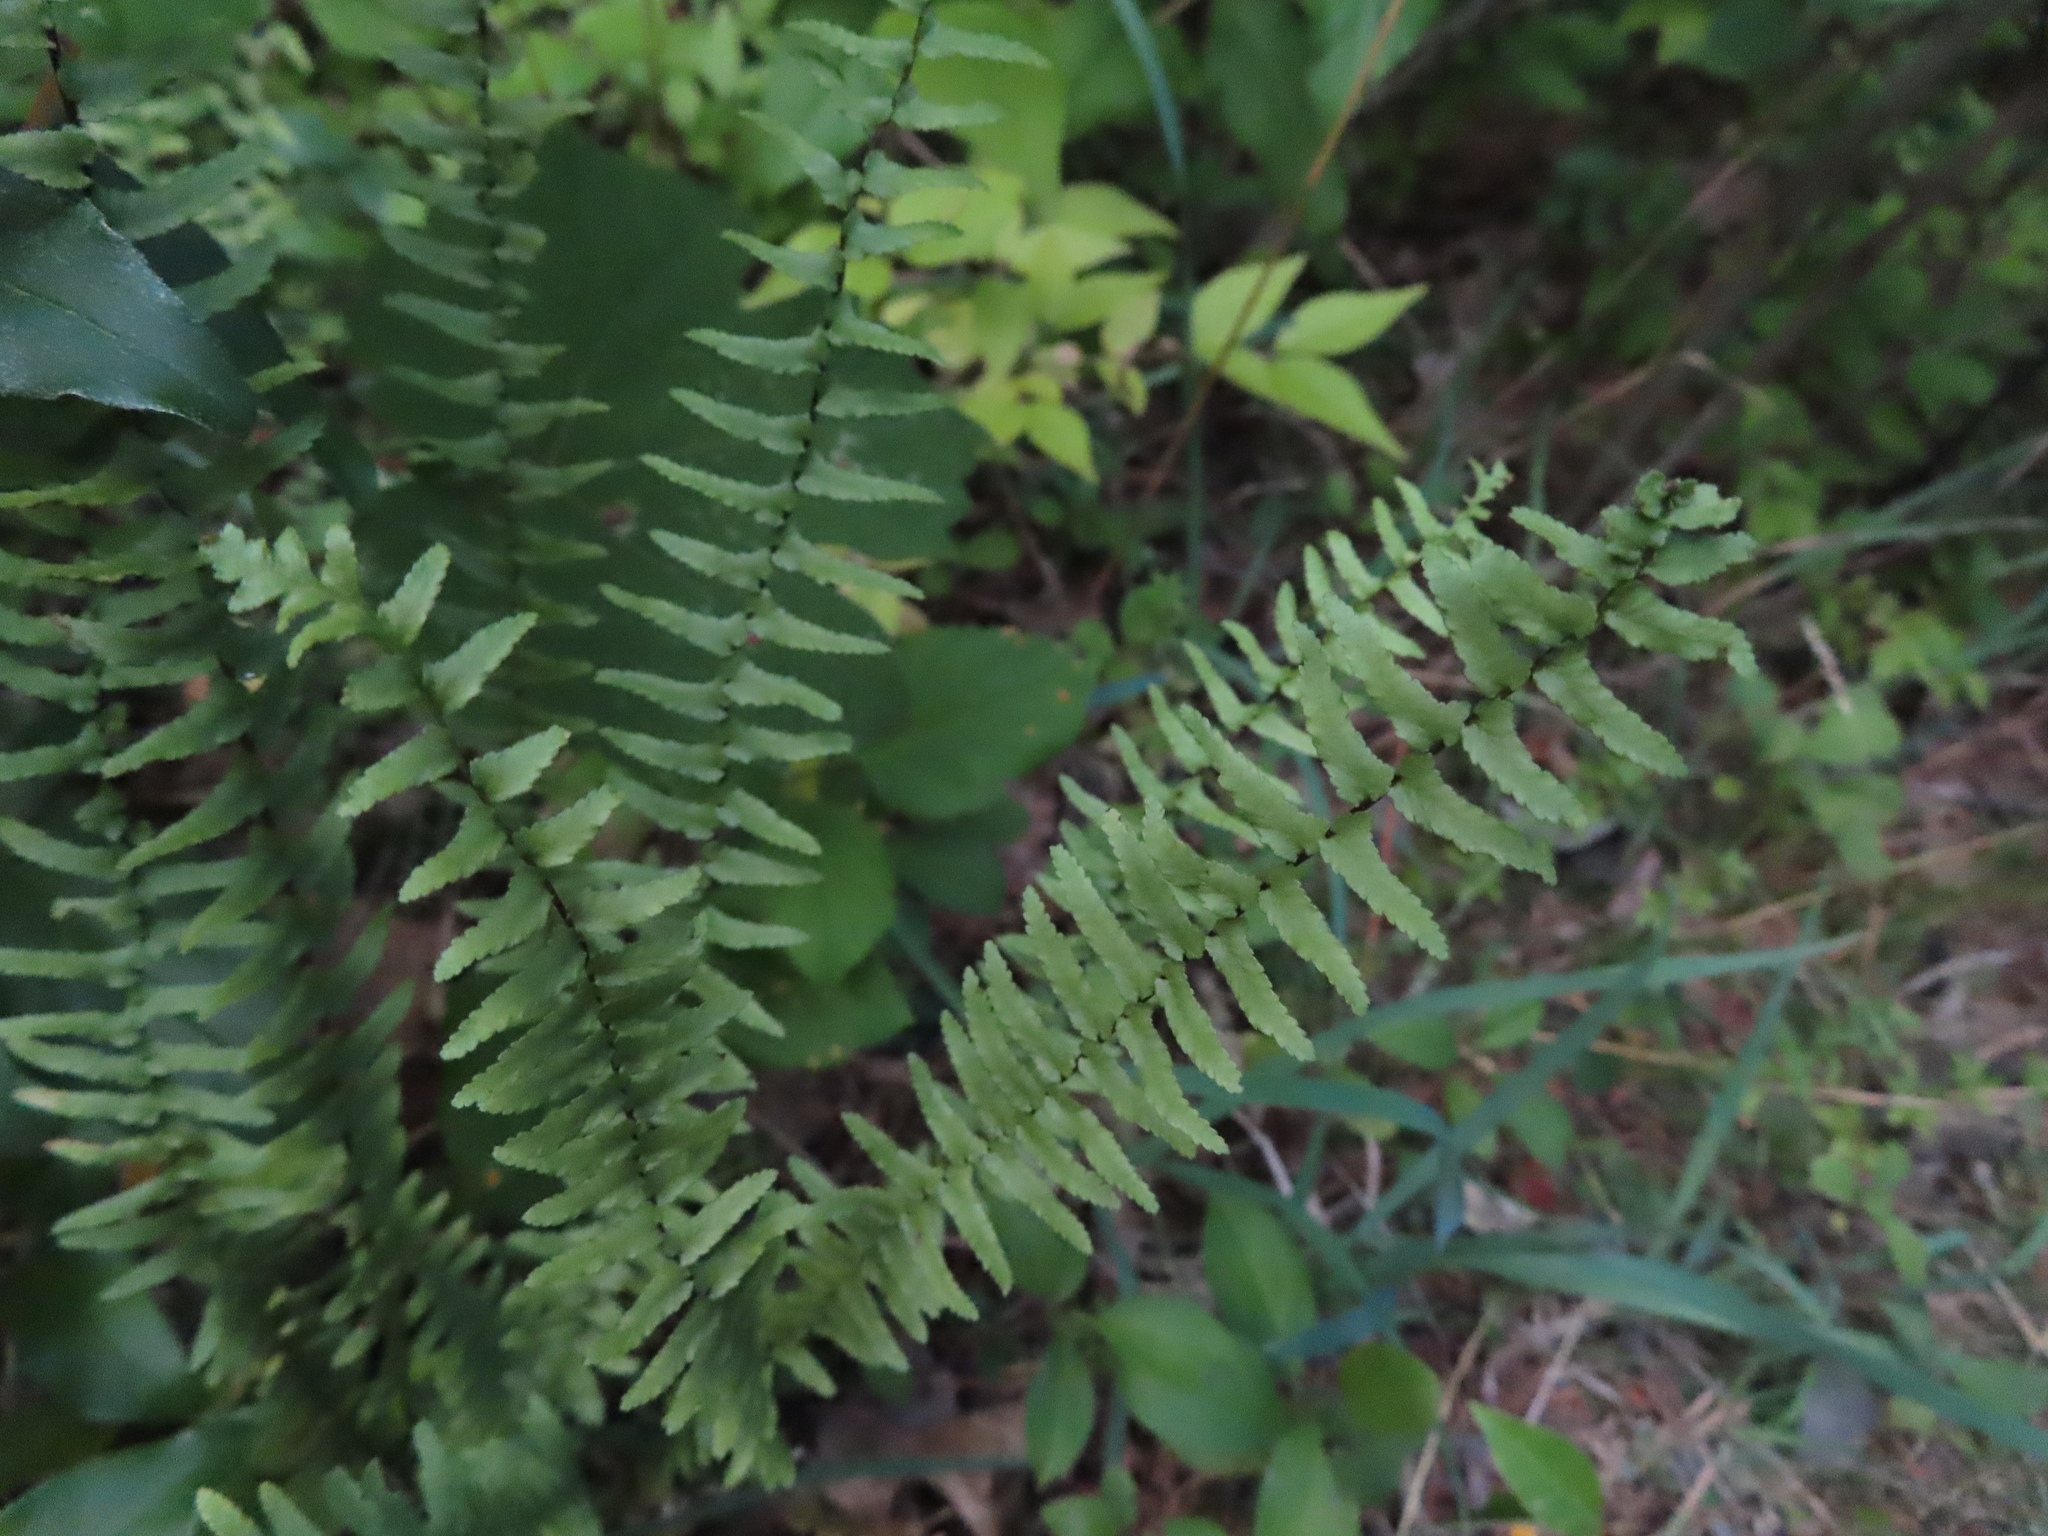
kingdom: Plantae
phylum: Tracheophyta
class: Polypodiopsida
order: Polypodiales
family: Aspleniaceae
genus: Asplenium
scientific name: Asplenium platyneuron
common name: Ebony spleenwort
